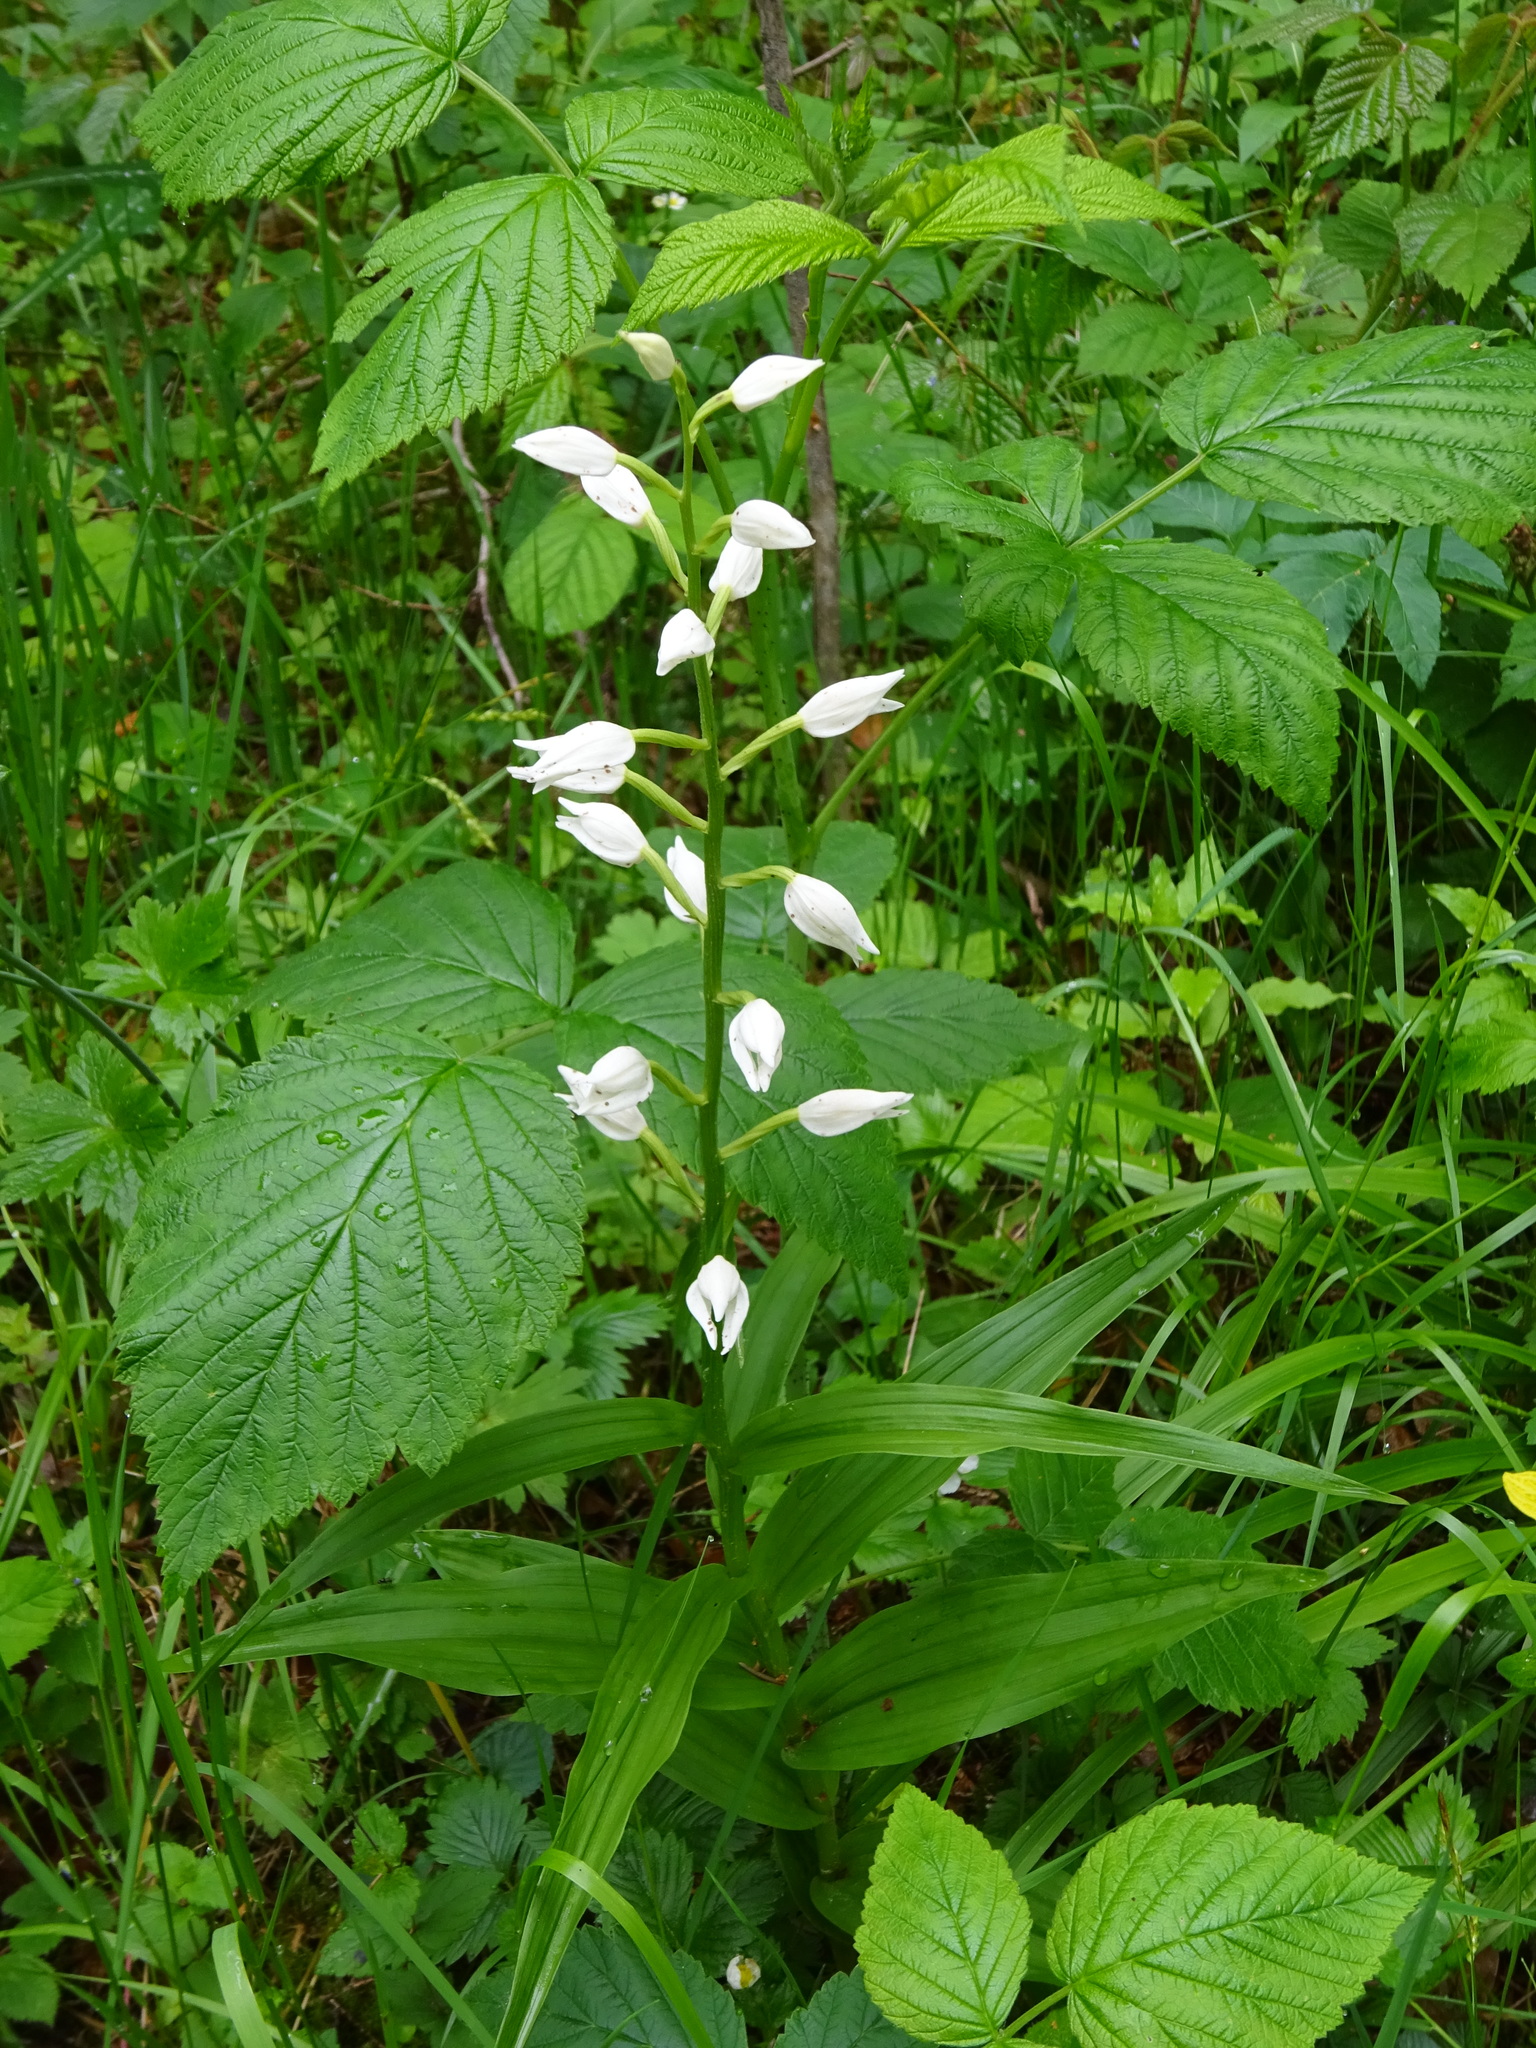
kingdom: Plantae
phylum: Tracheophyta
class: Liliopsida
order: Asparagales
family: Orchidaceae
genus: Cephalanthera
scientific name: Cephalanthera longifolia
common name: Narrow-leaved helleborine
